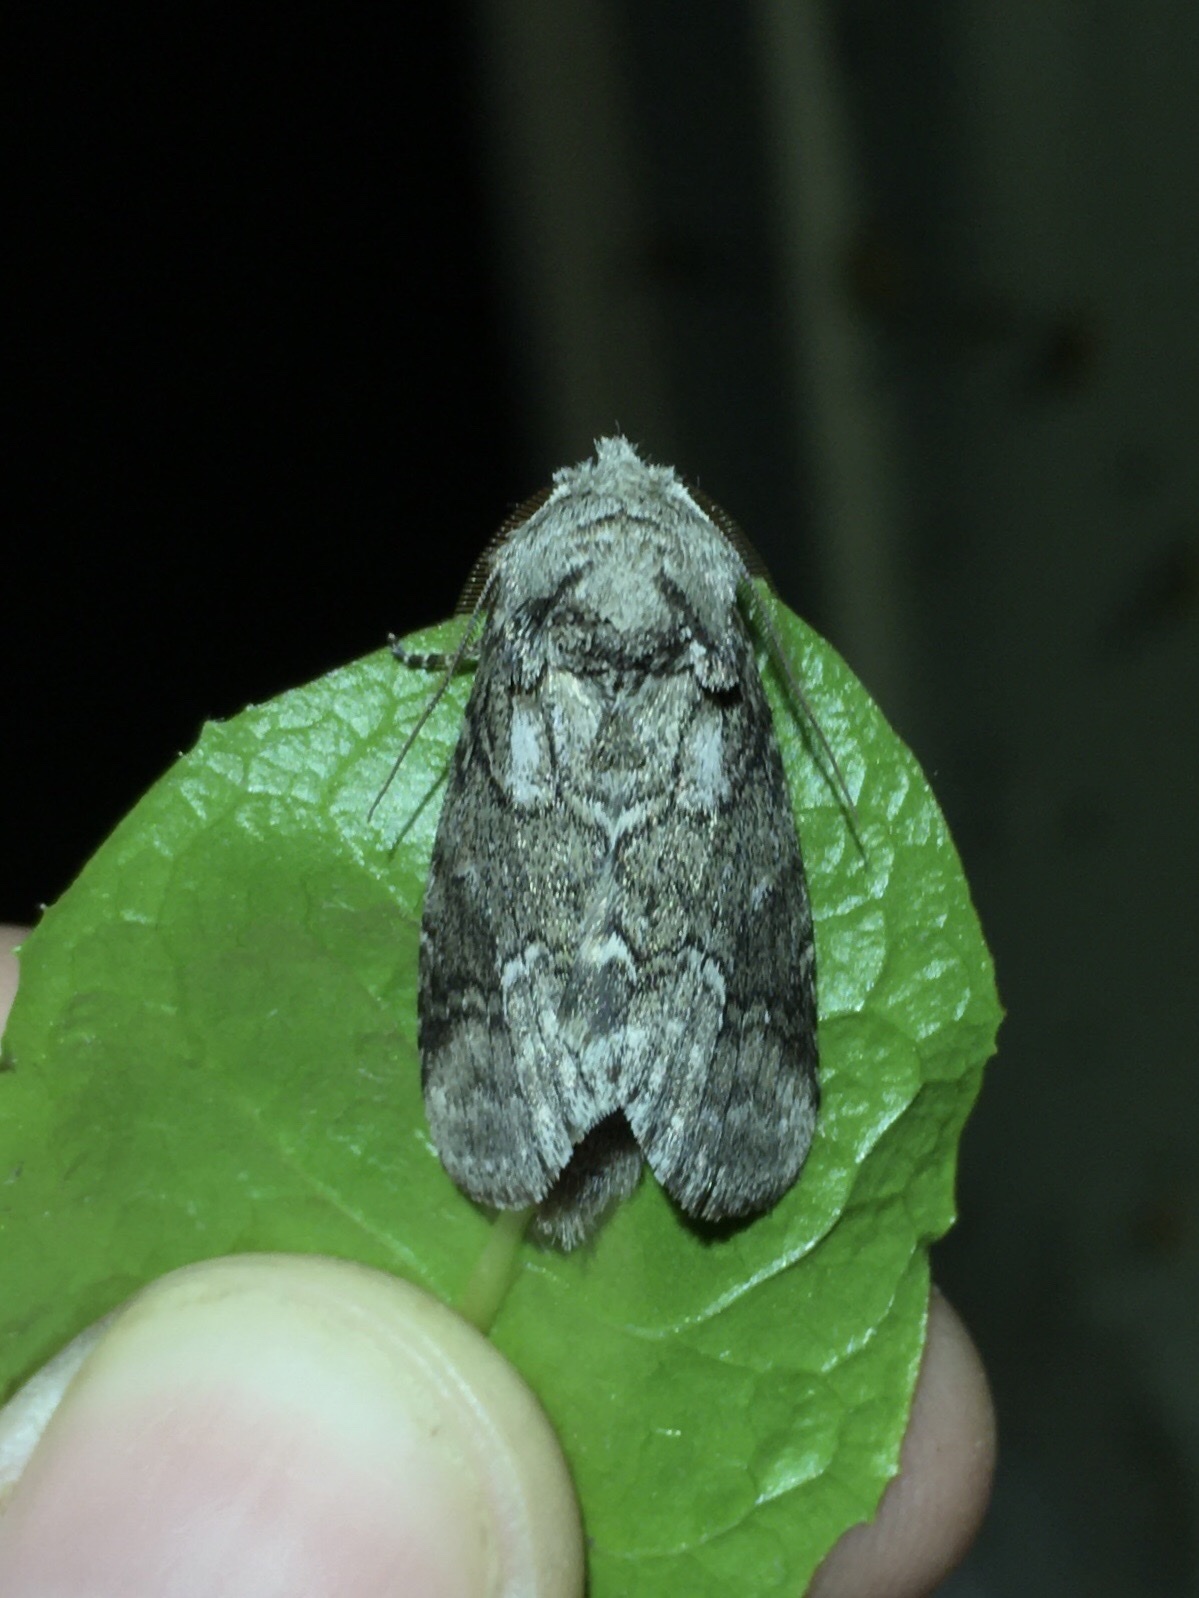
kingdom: Animalia
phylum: Arthropoda
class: Insecta
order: Lepidoptera
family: Notodontidae
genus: Lochmaeus
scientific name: Lochmaeus bilineata
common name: Double-lined prominent
